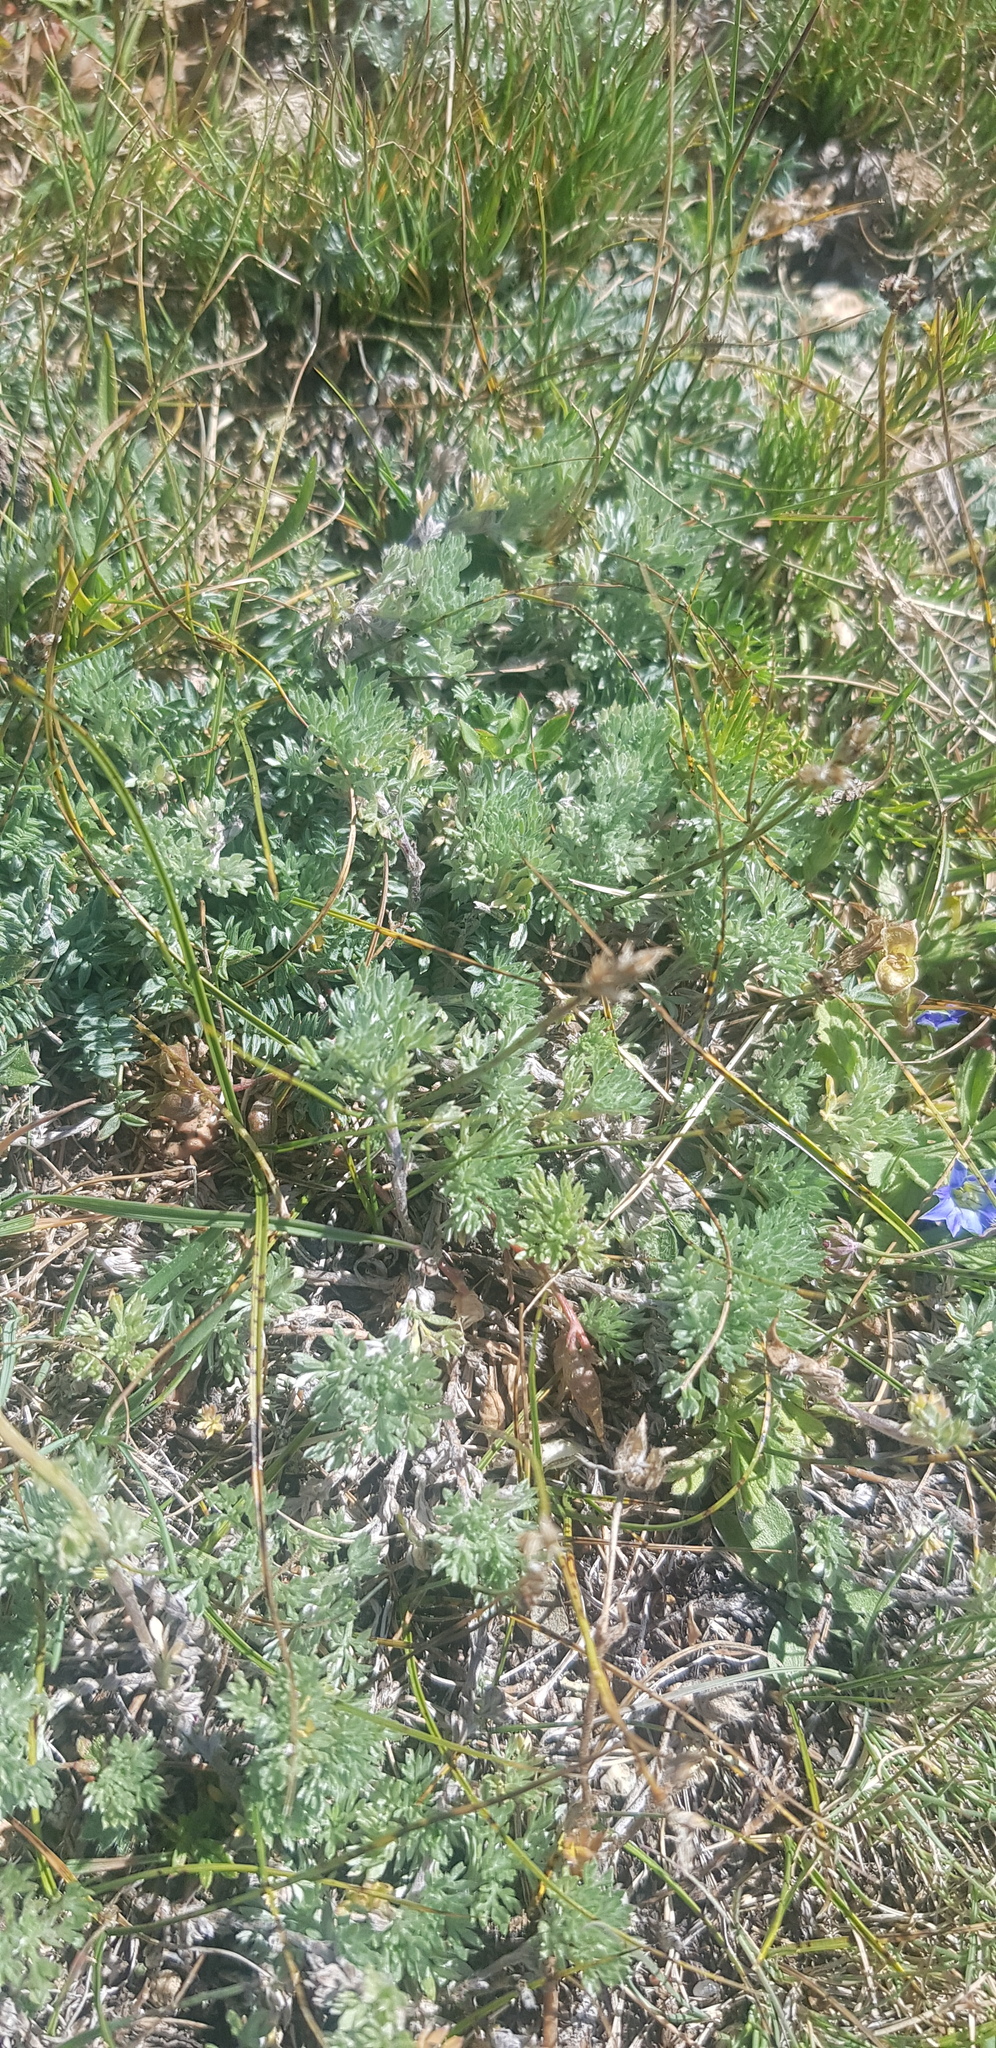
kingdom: Plantae
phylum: Tracheophyta
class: Magnoliopsida
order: Asterales
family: Asteraceae
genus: Artemisia
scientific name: Artemisia frigida
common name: Prairie sagewort
